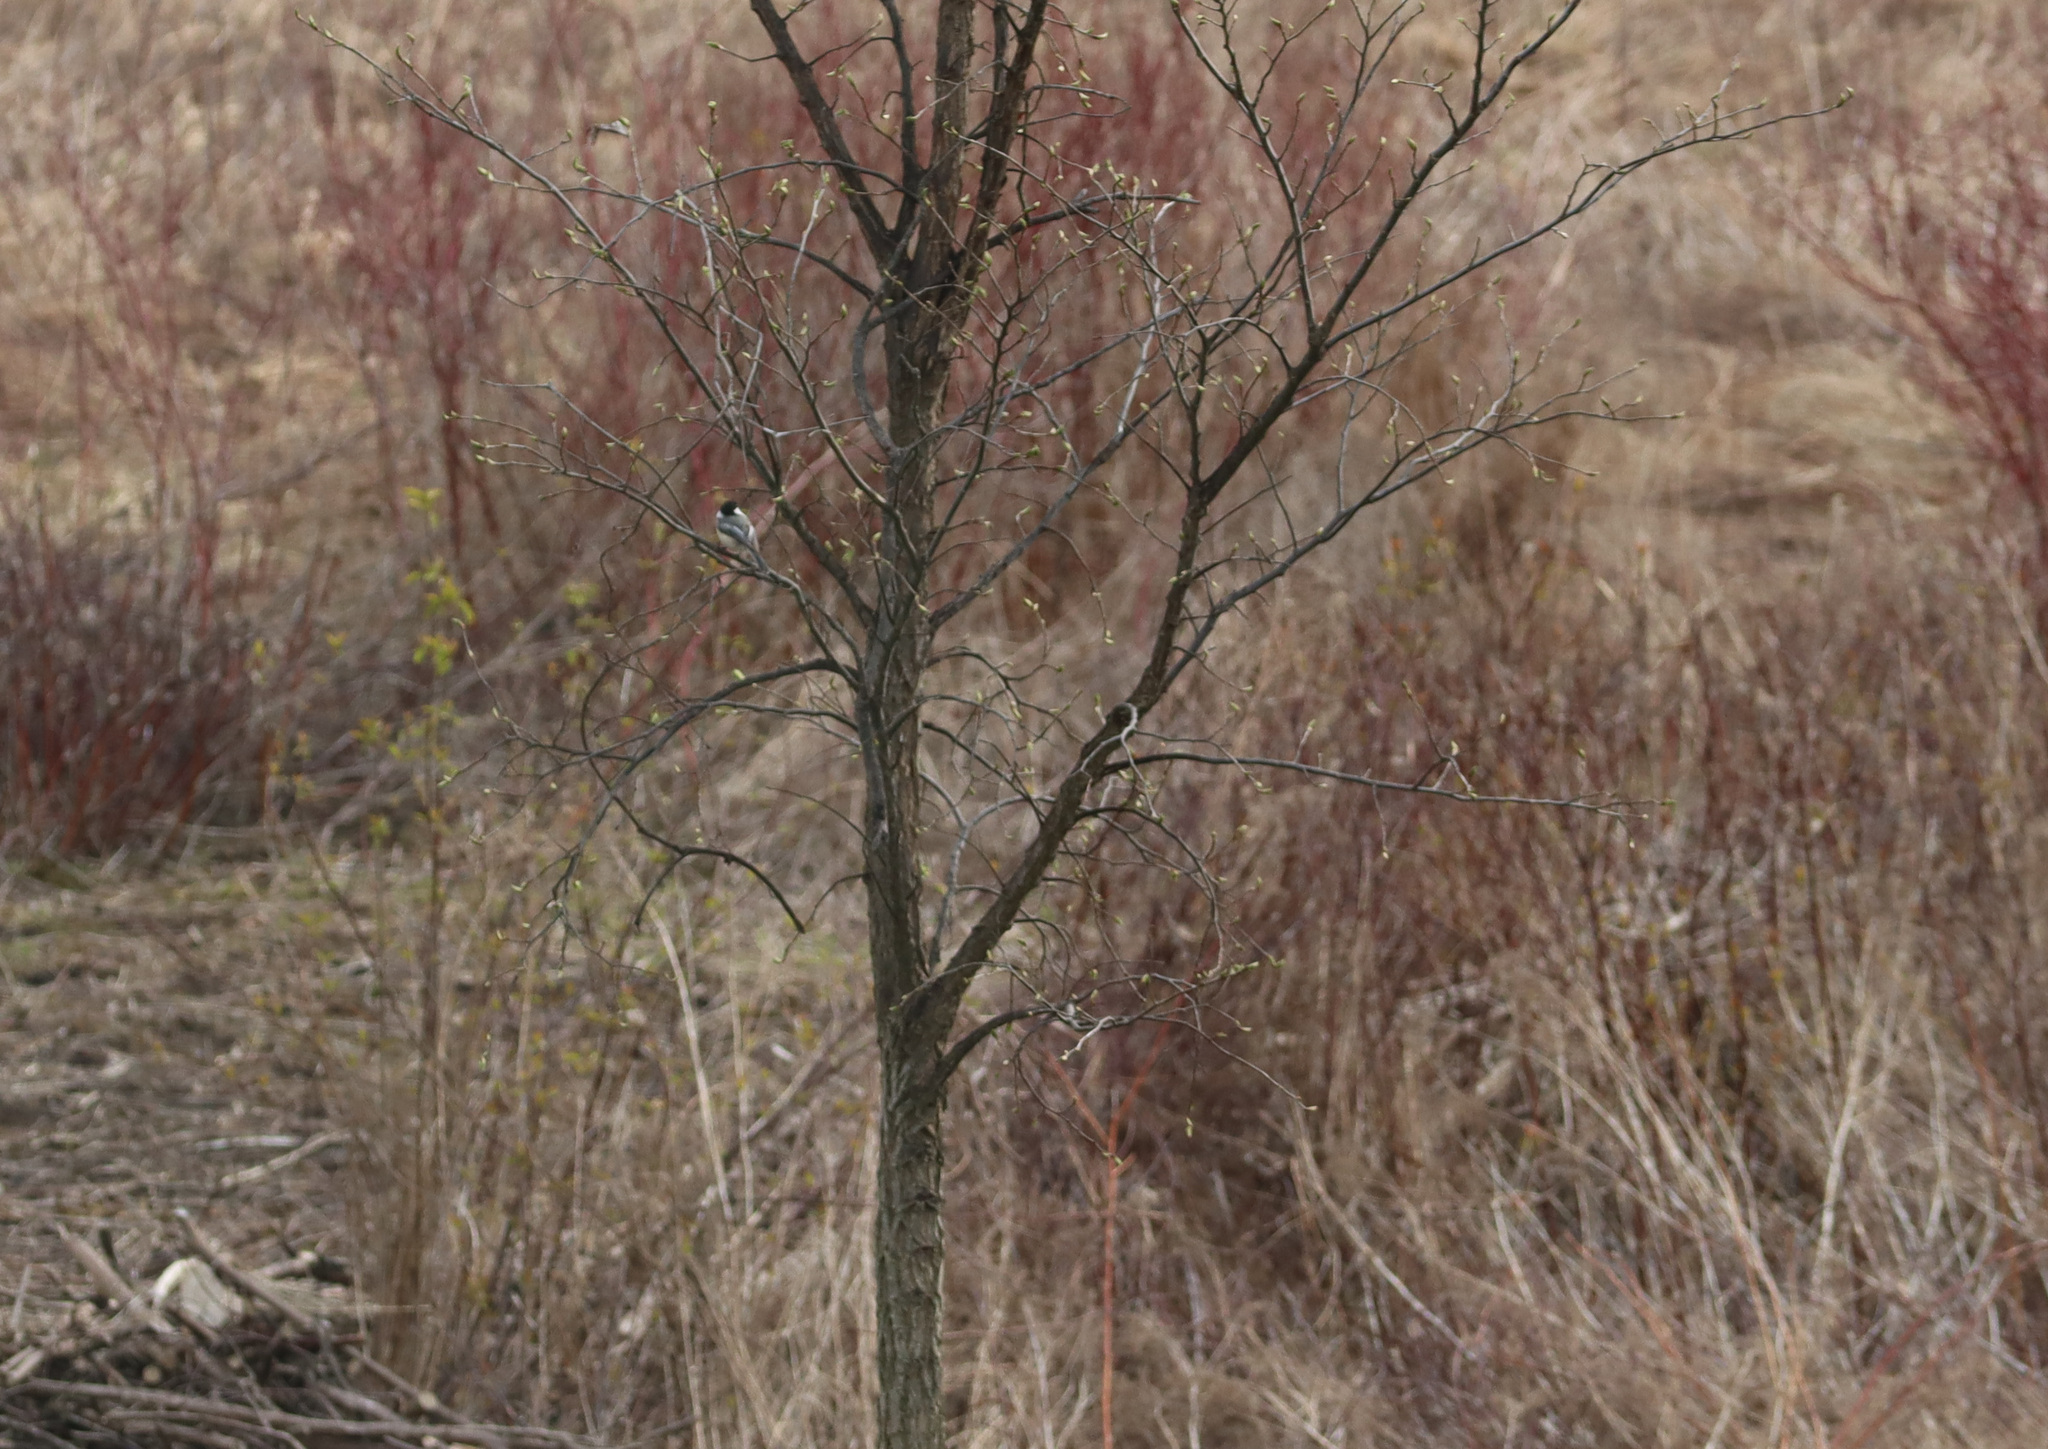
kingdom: Animalia
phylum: Chordata
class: Aves
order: Passeriformes
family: Paridae
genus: Poecile
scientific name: Poecile atricapillus
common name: Black-capped chickadee
